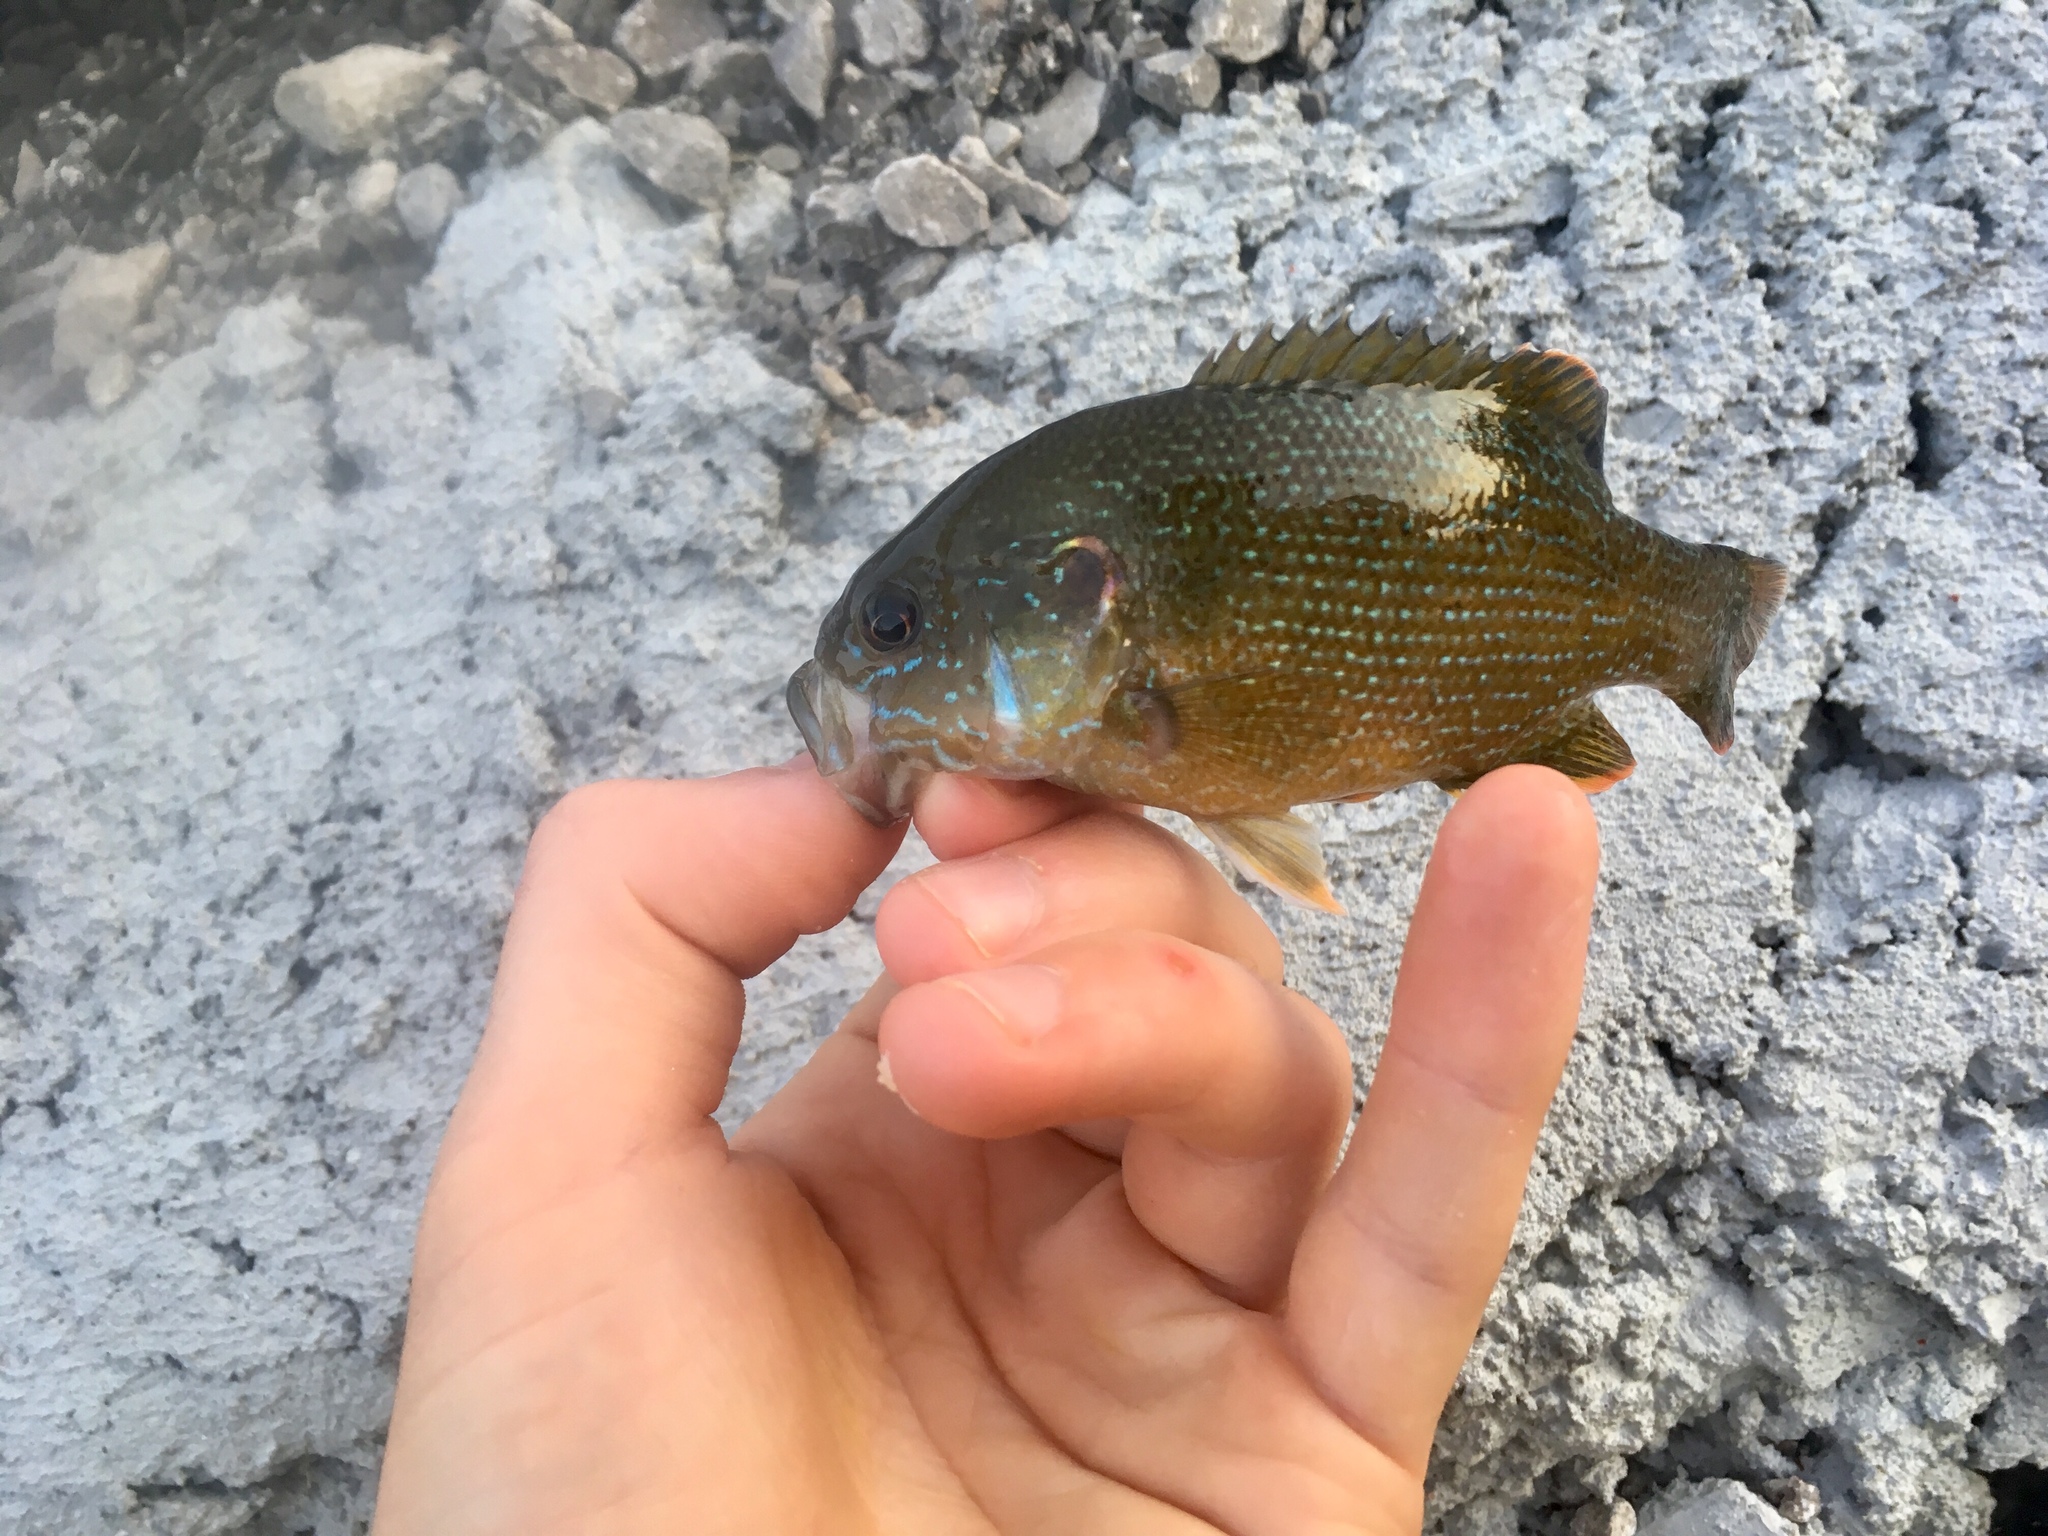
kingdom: Animalia
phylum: Chordata
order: Perciformes
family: Centrarchidae
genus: Lepomis
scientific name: Lepomis cyanellus
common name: Green sunfish
